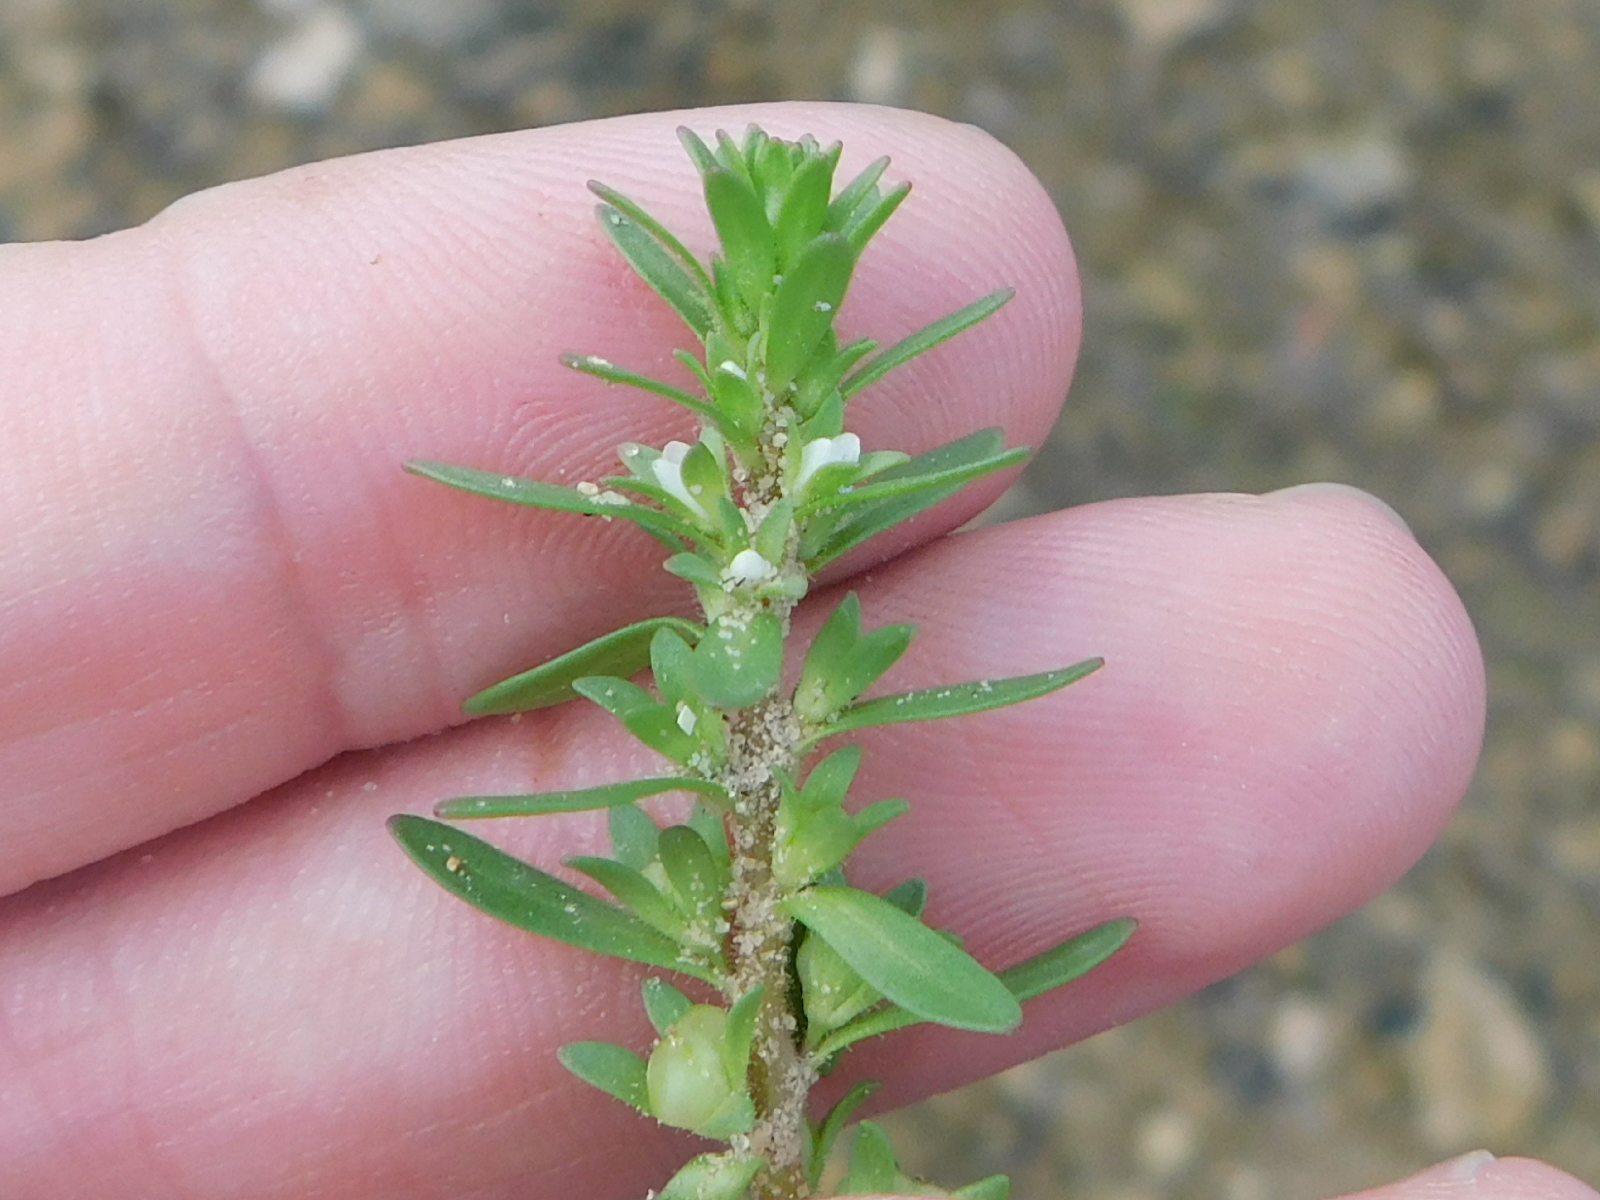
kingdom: Plantae
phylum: Tracheophyta
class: Magnoliopsida
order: Lamiales
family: Plantaginaceae
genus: Veronica
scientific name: Veronica peregrina
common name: Neckweed
